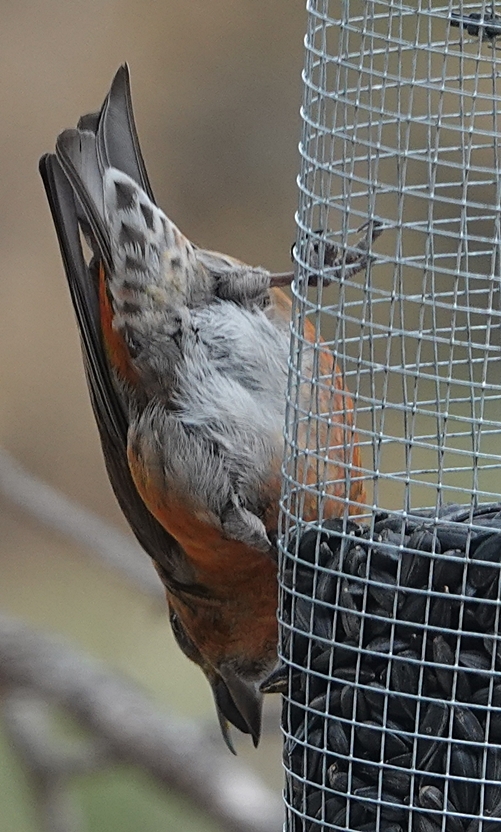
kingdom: Animalia
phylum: Chordata
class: Aves
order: Passeriformes
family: Fringillidae
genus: Loxia
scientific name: Loxia curvirostra
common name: Red crossbill
